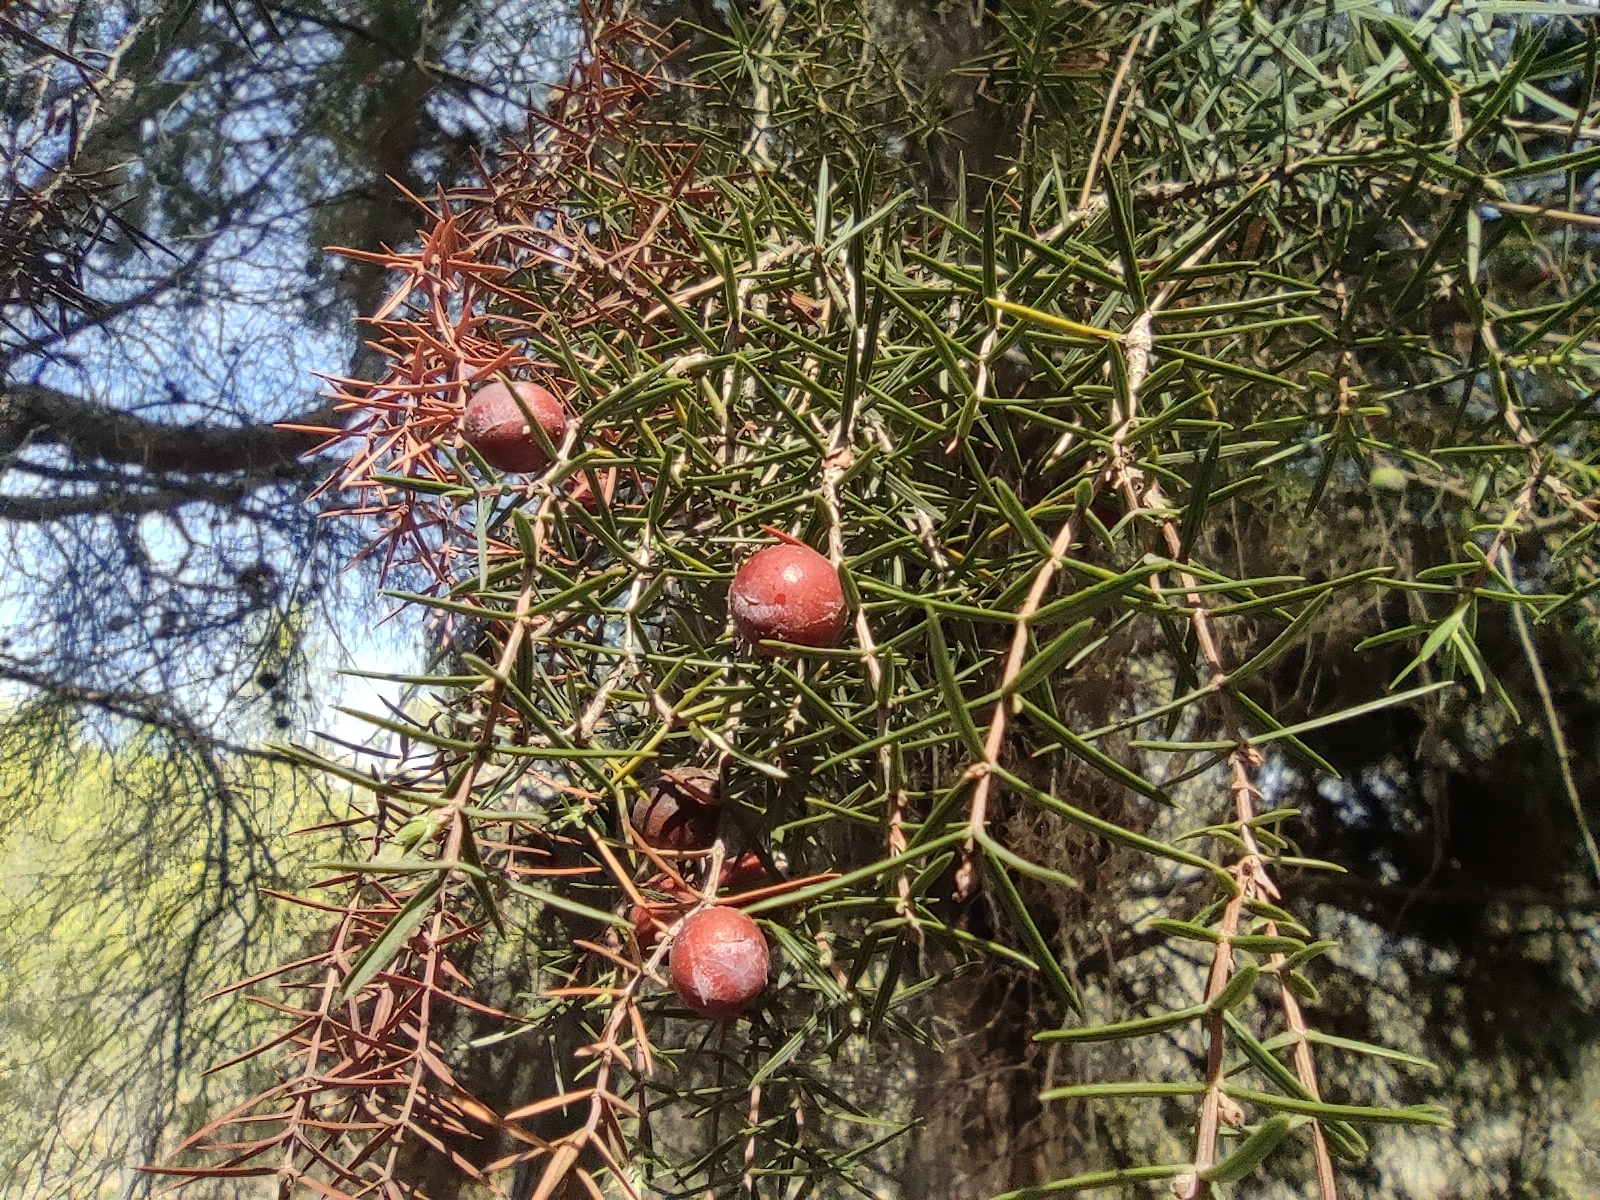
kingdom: Plantae
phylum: Tracheophyta
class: Pinopsida
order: Pinales
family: Cupressaceae
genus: Juniperus
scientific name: Juniperus oxycedrus
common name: Prickly juniper
